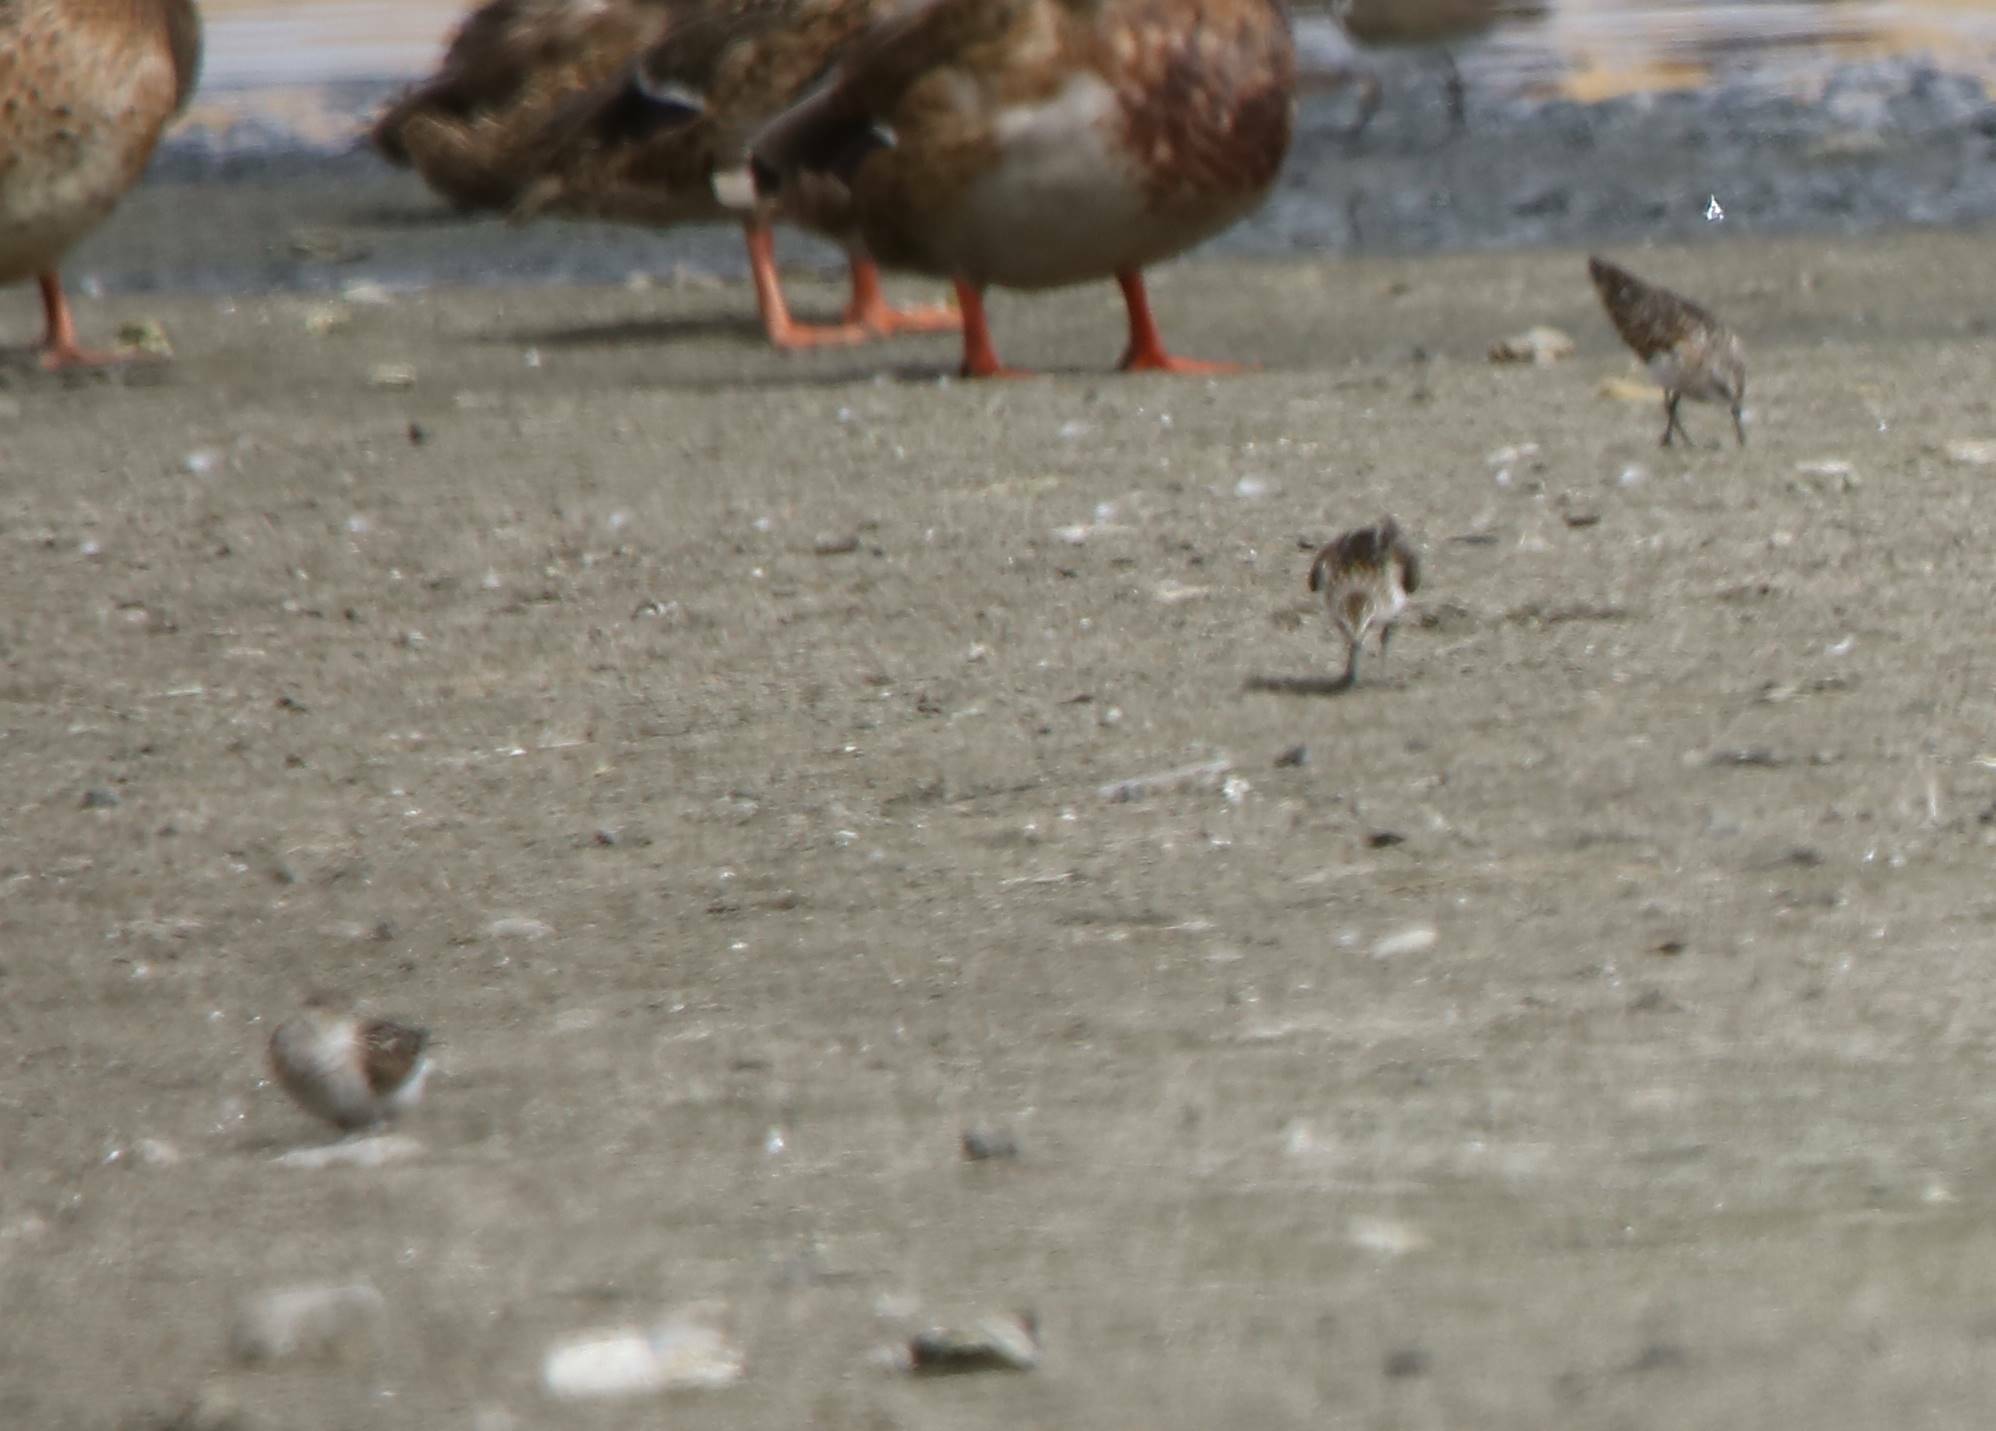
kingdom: Animalia
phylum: Chordata
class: Aves
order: Charadriiformes
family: Scolopacidae
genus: Calidris
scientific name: Calidris minuta
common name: Little stint
